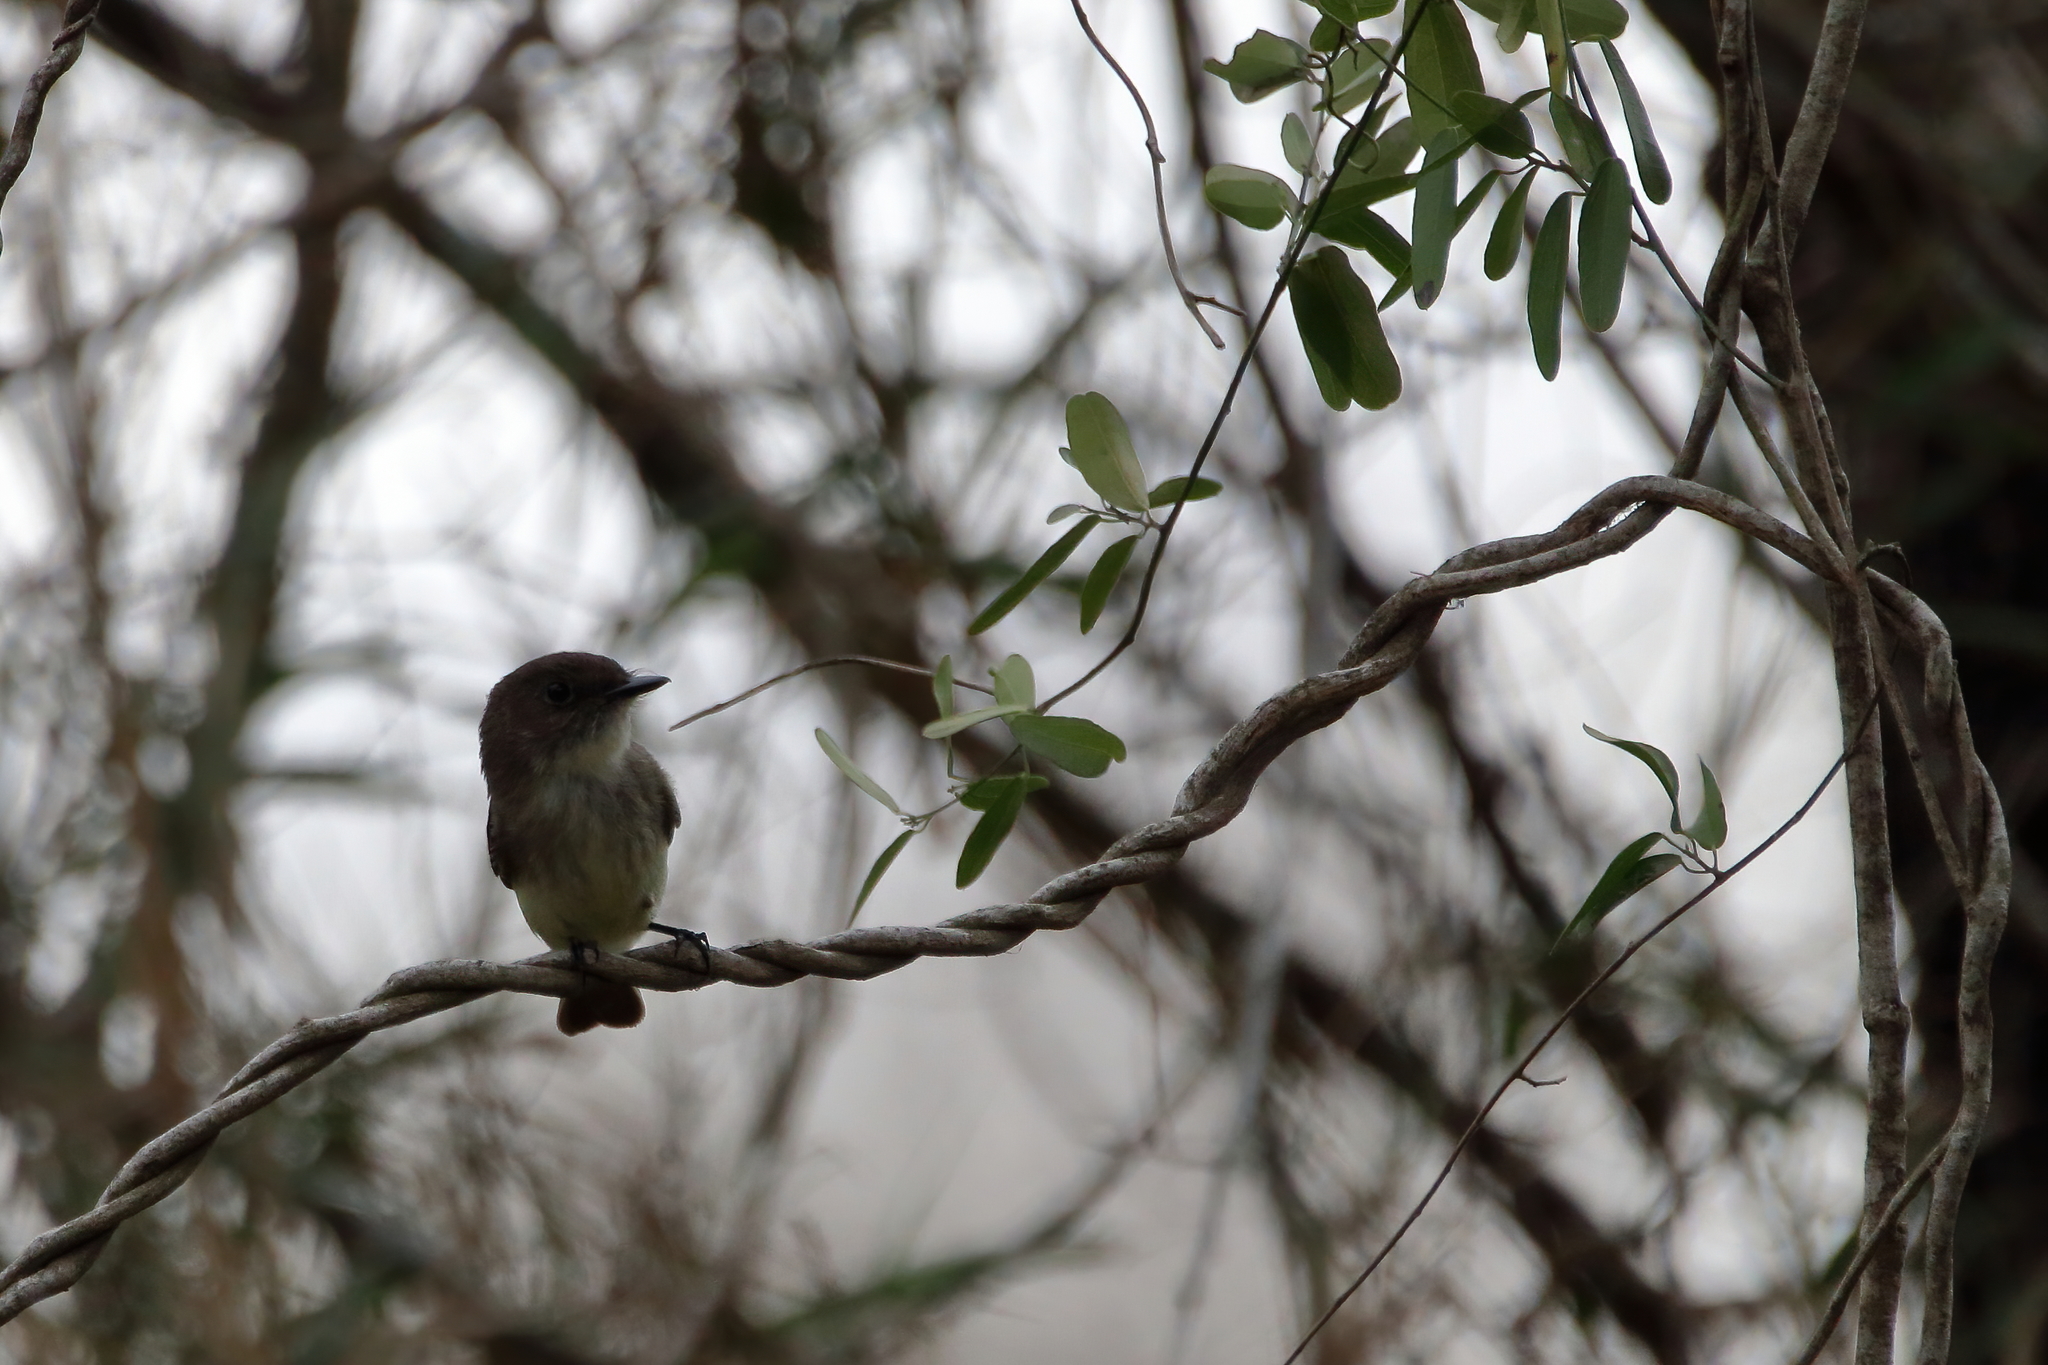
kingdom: Animalia
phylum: Chordata
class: Aves
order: Passeriformes
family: Tyrannidae
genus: Sayornis
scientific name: Sayornis phoebe
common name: Eastern phoebe
